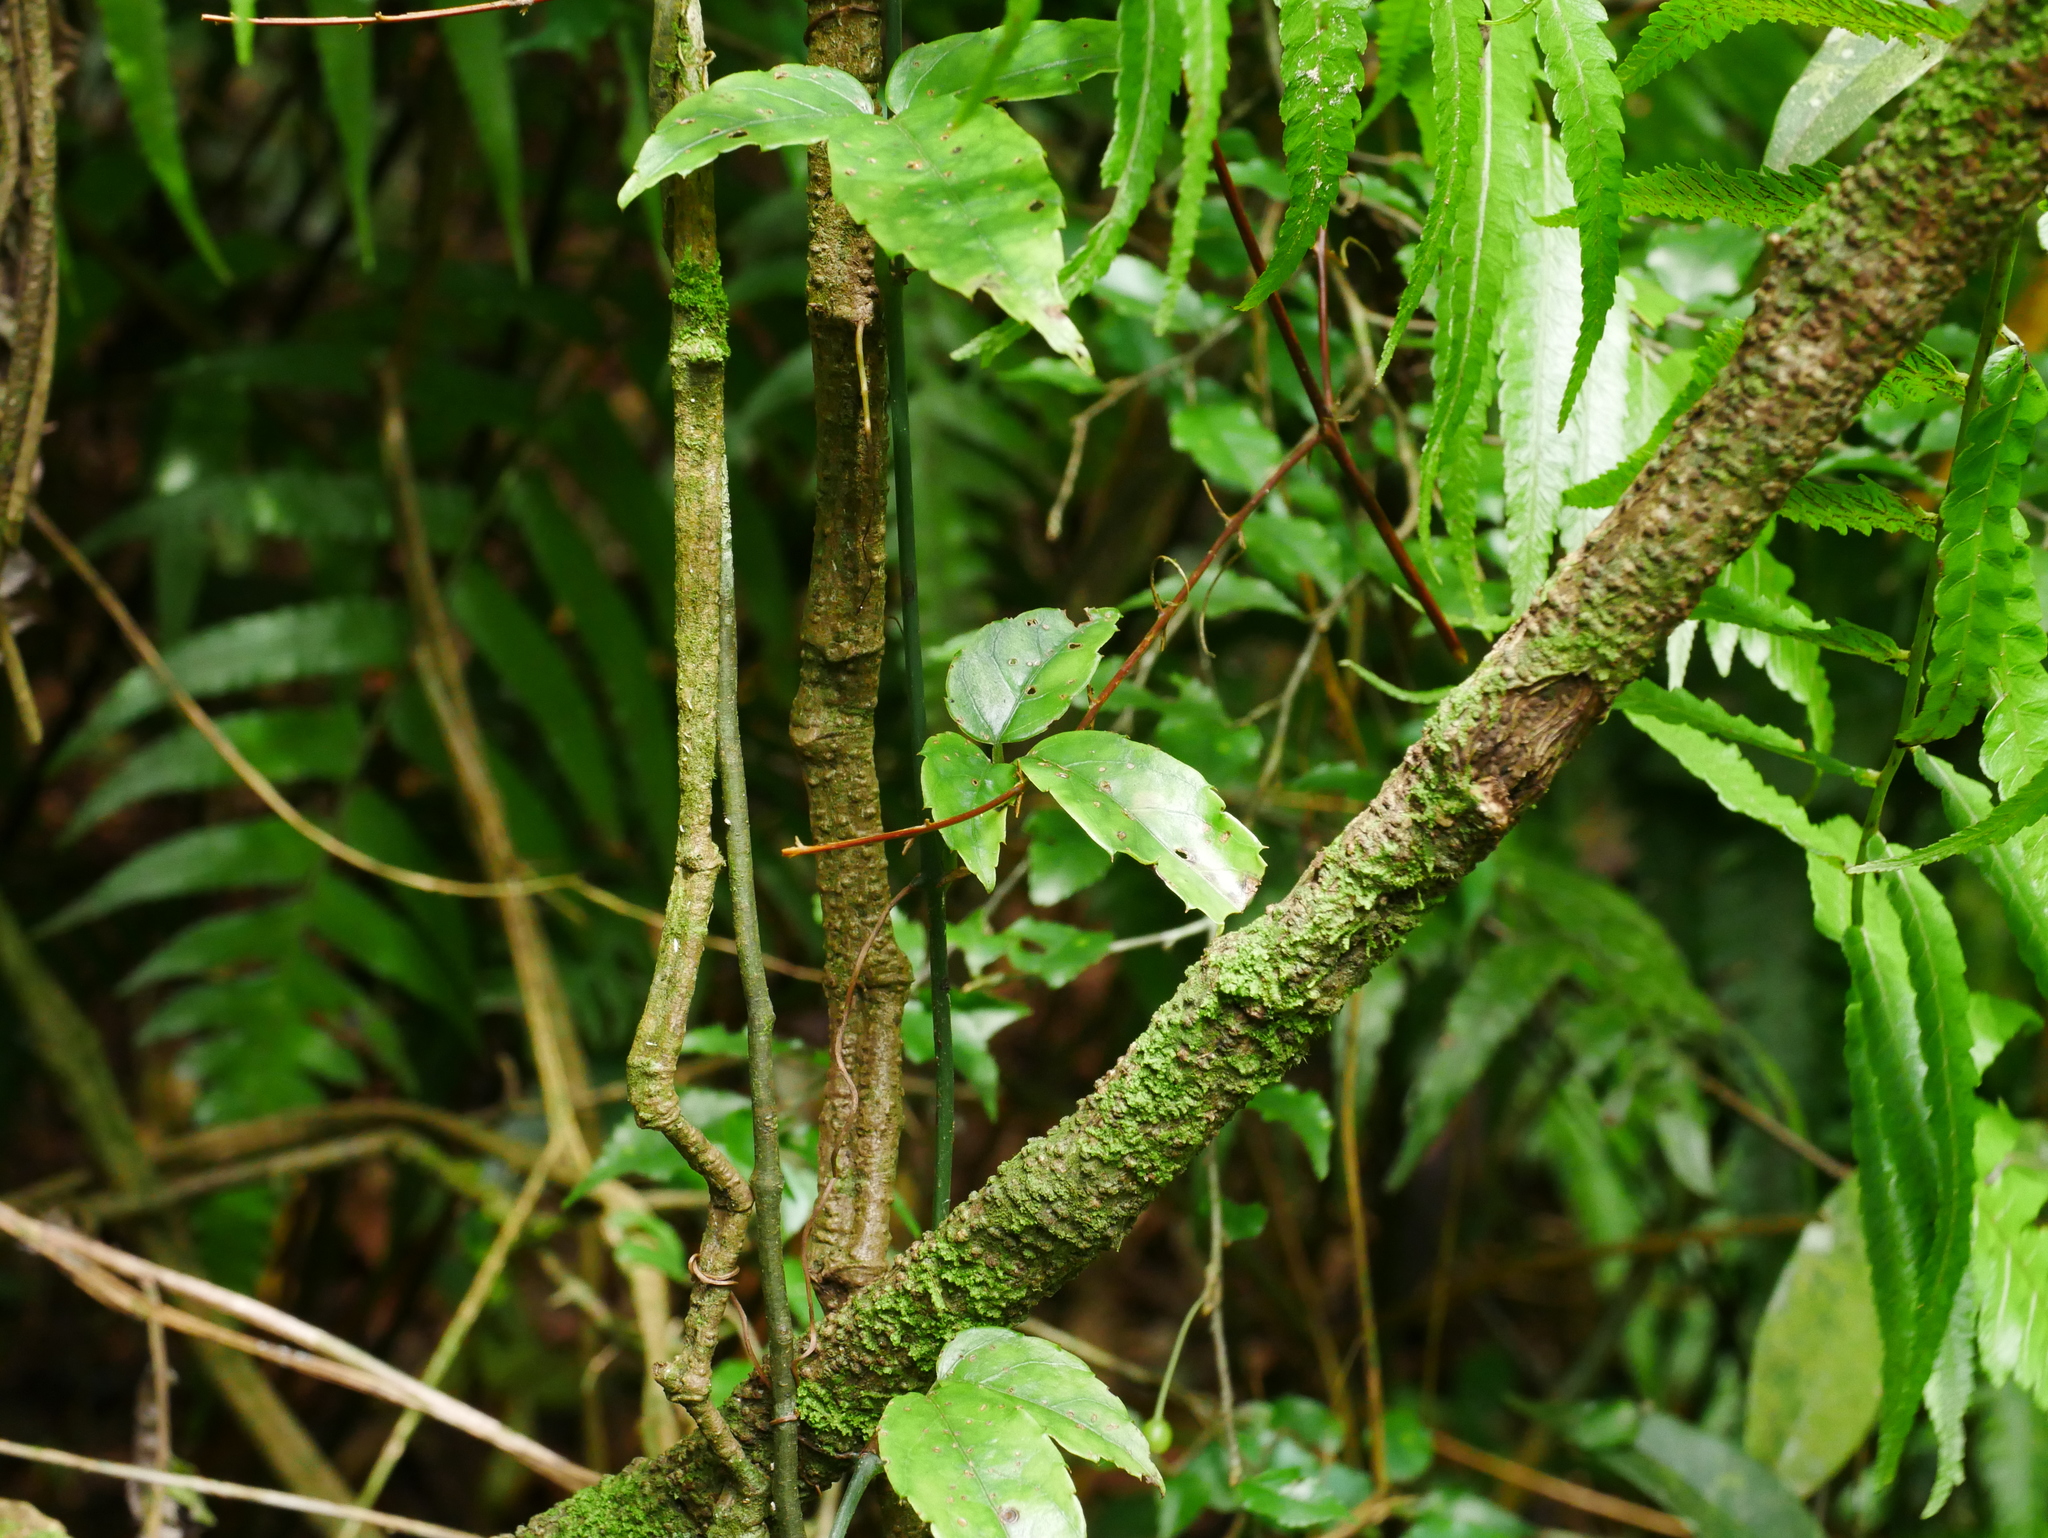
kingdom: Plantae
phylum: Tracheophyta
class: Magnoliopsida
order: Vitales
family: Vitaceae
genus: Tetrastigma
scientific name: Tetrastigma hemsleyanum
